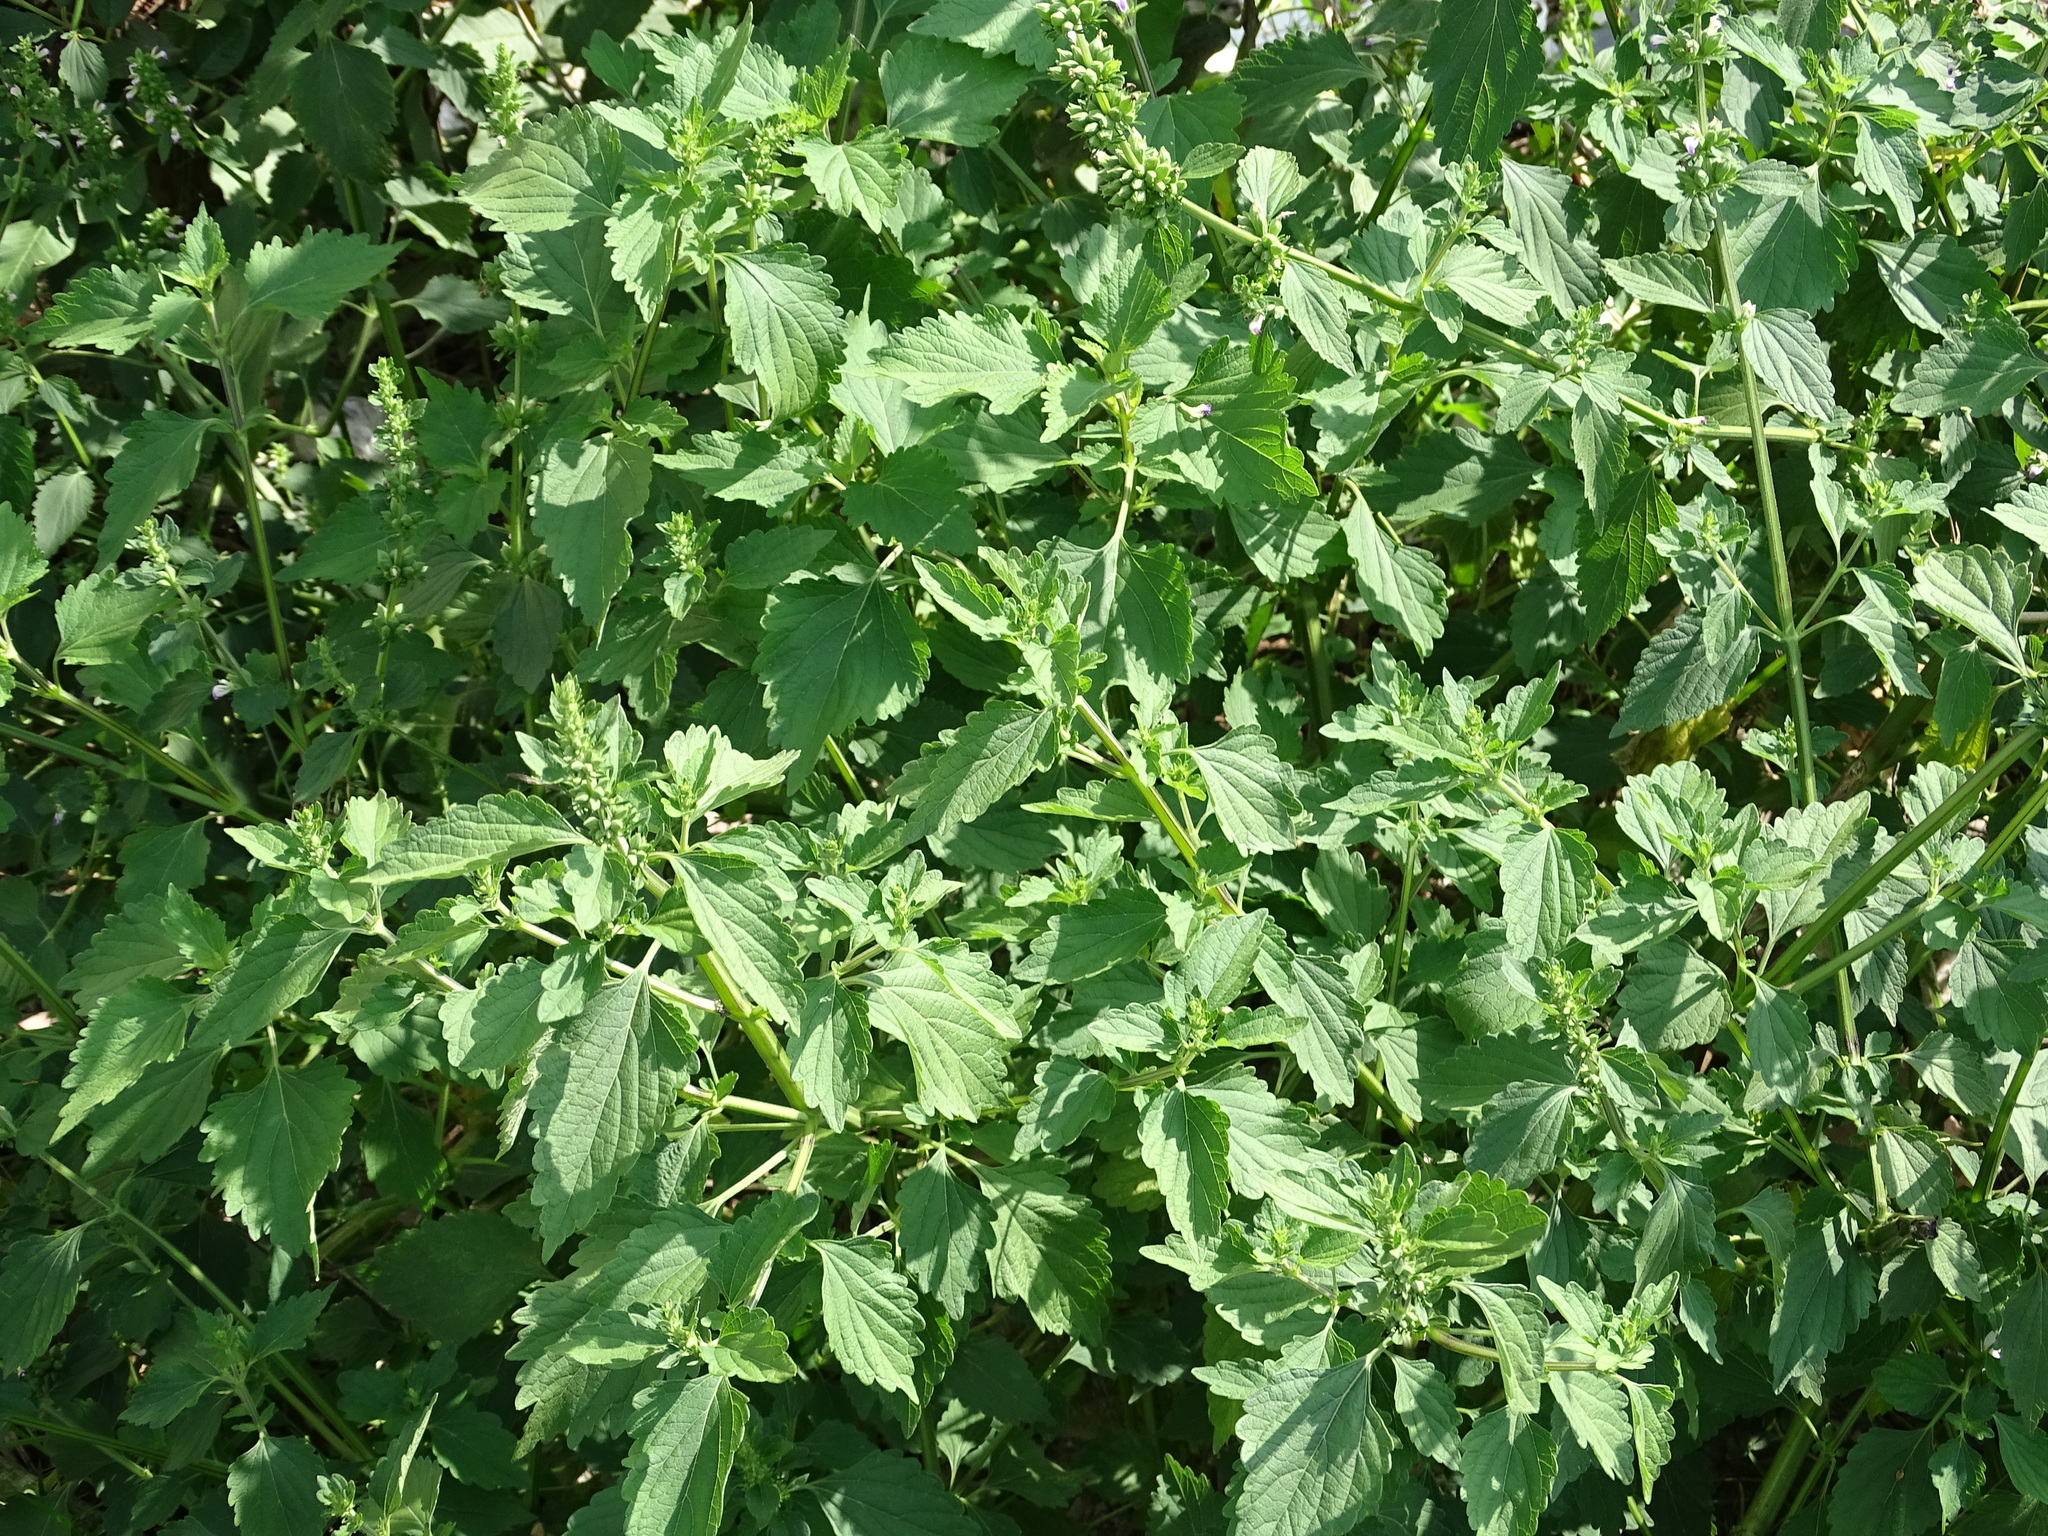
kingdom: Plantae
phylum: Tracheophyta
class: Magnoliopsida
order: Lamiales
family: Lamiaceae
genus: Anisomeles
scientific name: Anisomeles indica
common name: Catmint
